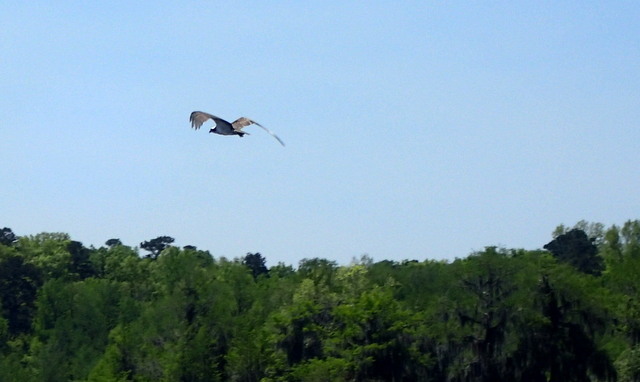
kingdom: Animalia
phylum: Chordata
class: Aves
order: Accipitriformes
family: Pandionidae
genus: Pandion
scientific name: Pandion haliaetus
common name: Osprey
